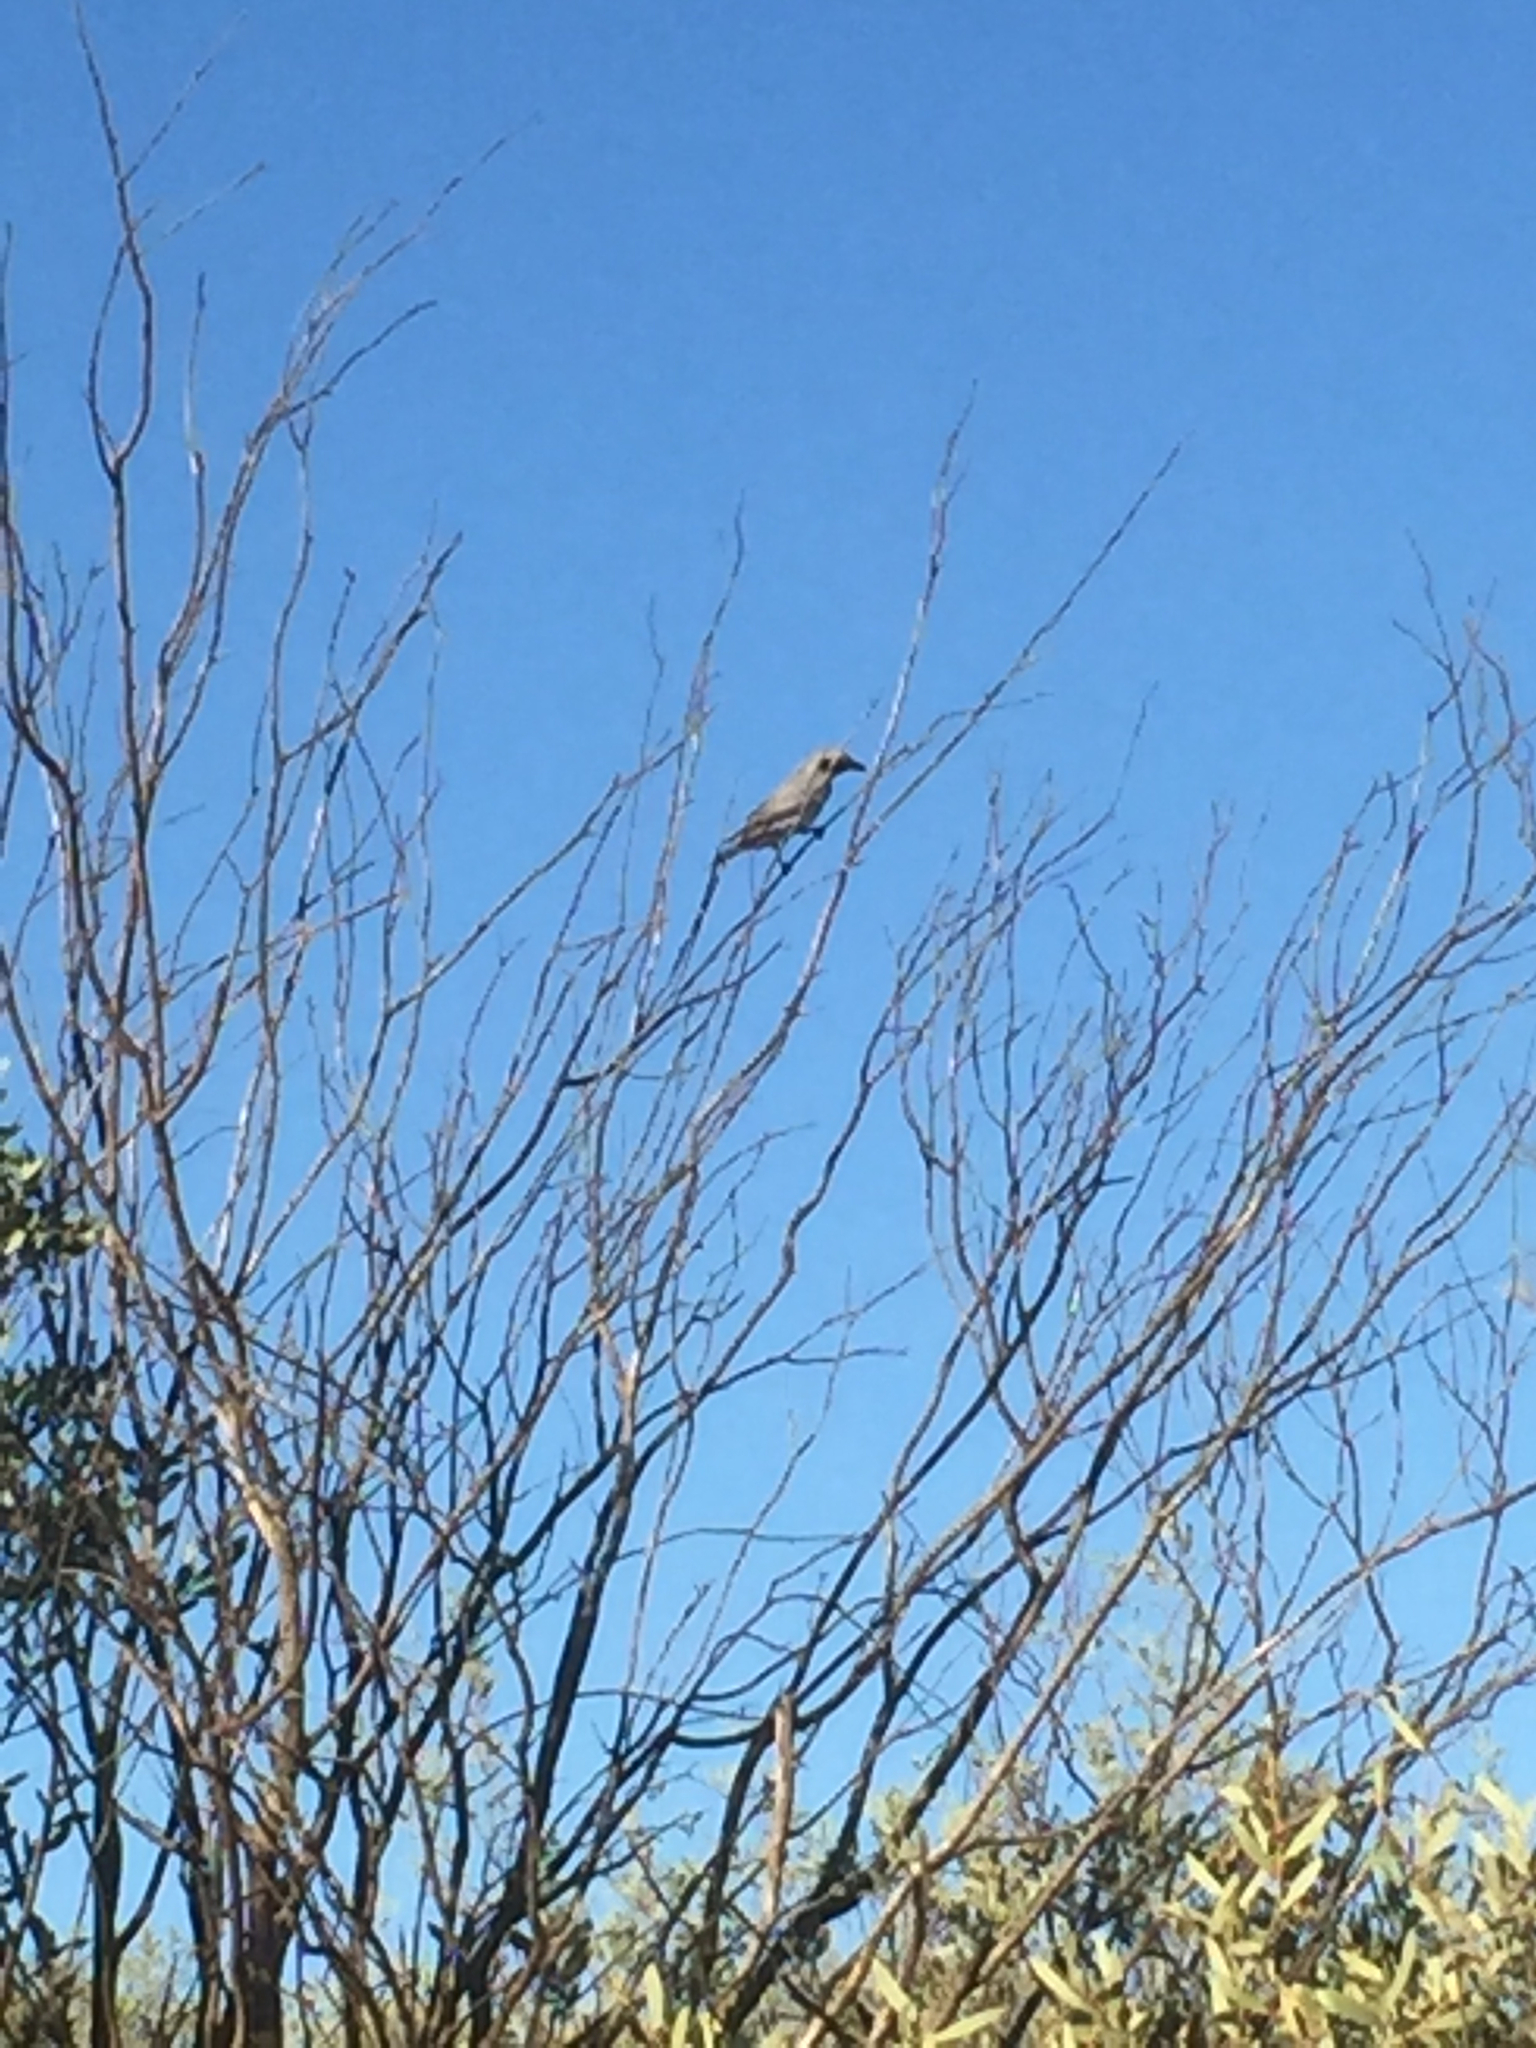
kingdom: Animalia
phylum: Chordata
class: Aves
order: Passeriformes
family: Campephagidae
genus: Coracina
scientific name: Coracina novaehollandiae
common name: Black-faced cuckooshrike
